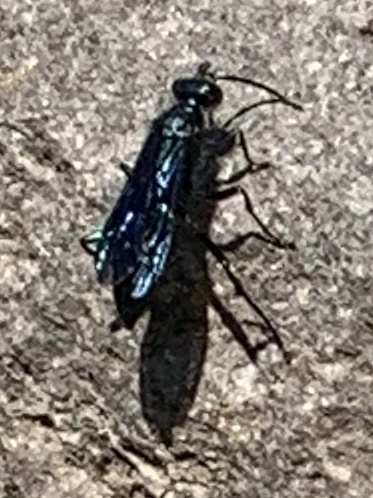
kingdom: Animalia
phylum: Arthropoda
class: Insecta
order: Hymenoptera
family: Sphecidae
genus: Chalybion
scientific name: Chalybion californicum
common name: Mud dauber
